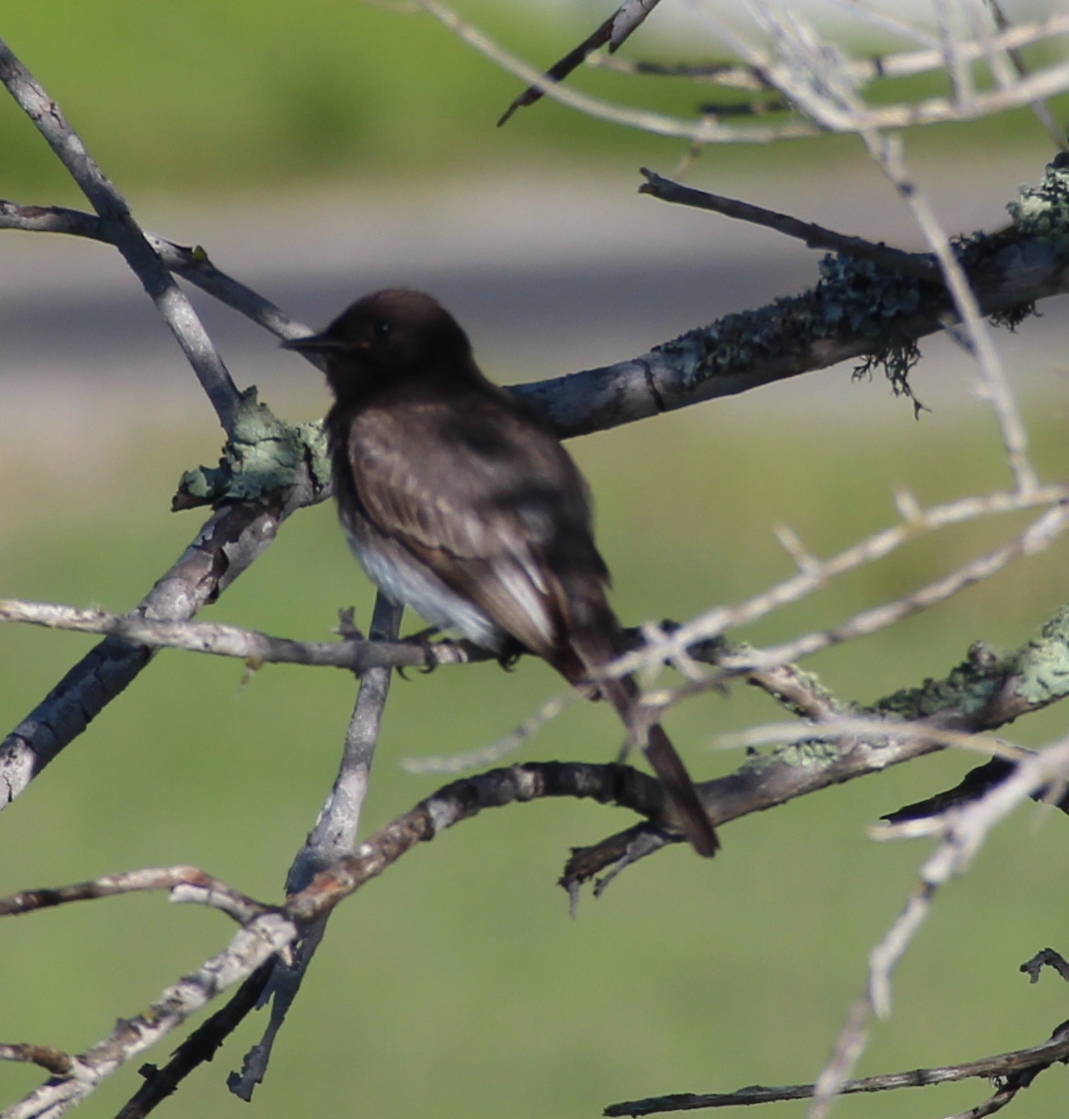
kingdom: Animalia
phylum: Chordata
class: Aves
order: Passeriformes
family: Tyrannidae
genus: Sayornis
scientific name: Sayornis nigricans
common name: Black phoebe
